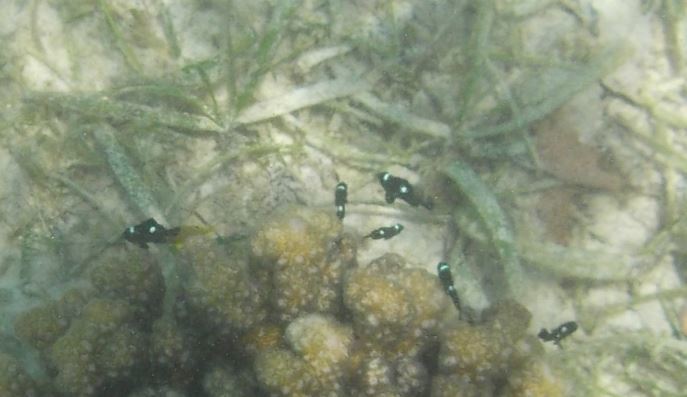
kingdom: Animalia
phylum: Chordata
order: Perciformes
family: Pomacentridae
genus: Dascyllus
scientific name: Dascyllus trimaculatus
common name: Threespot dascyllus
